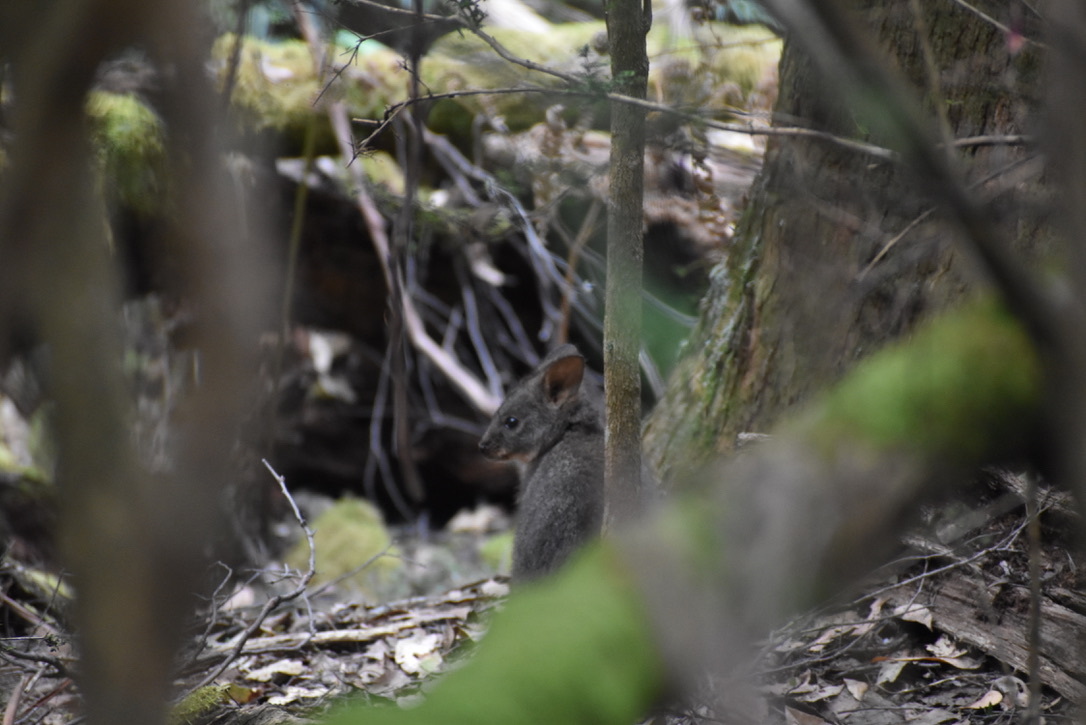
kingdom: Animalia
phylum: Chordata
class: Mammalia
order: Diprotodontia
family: Macropodidae
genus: Thylogale
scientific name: Thylogale billardierii
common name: Tasmanian pademelon
